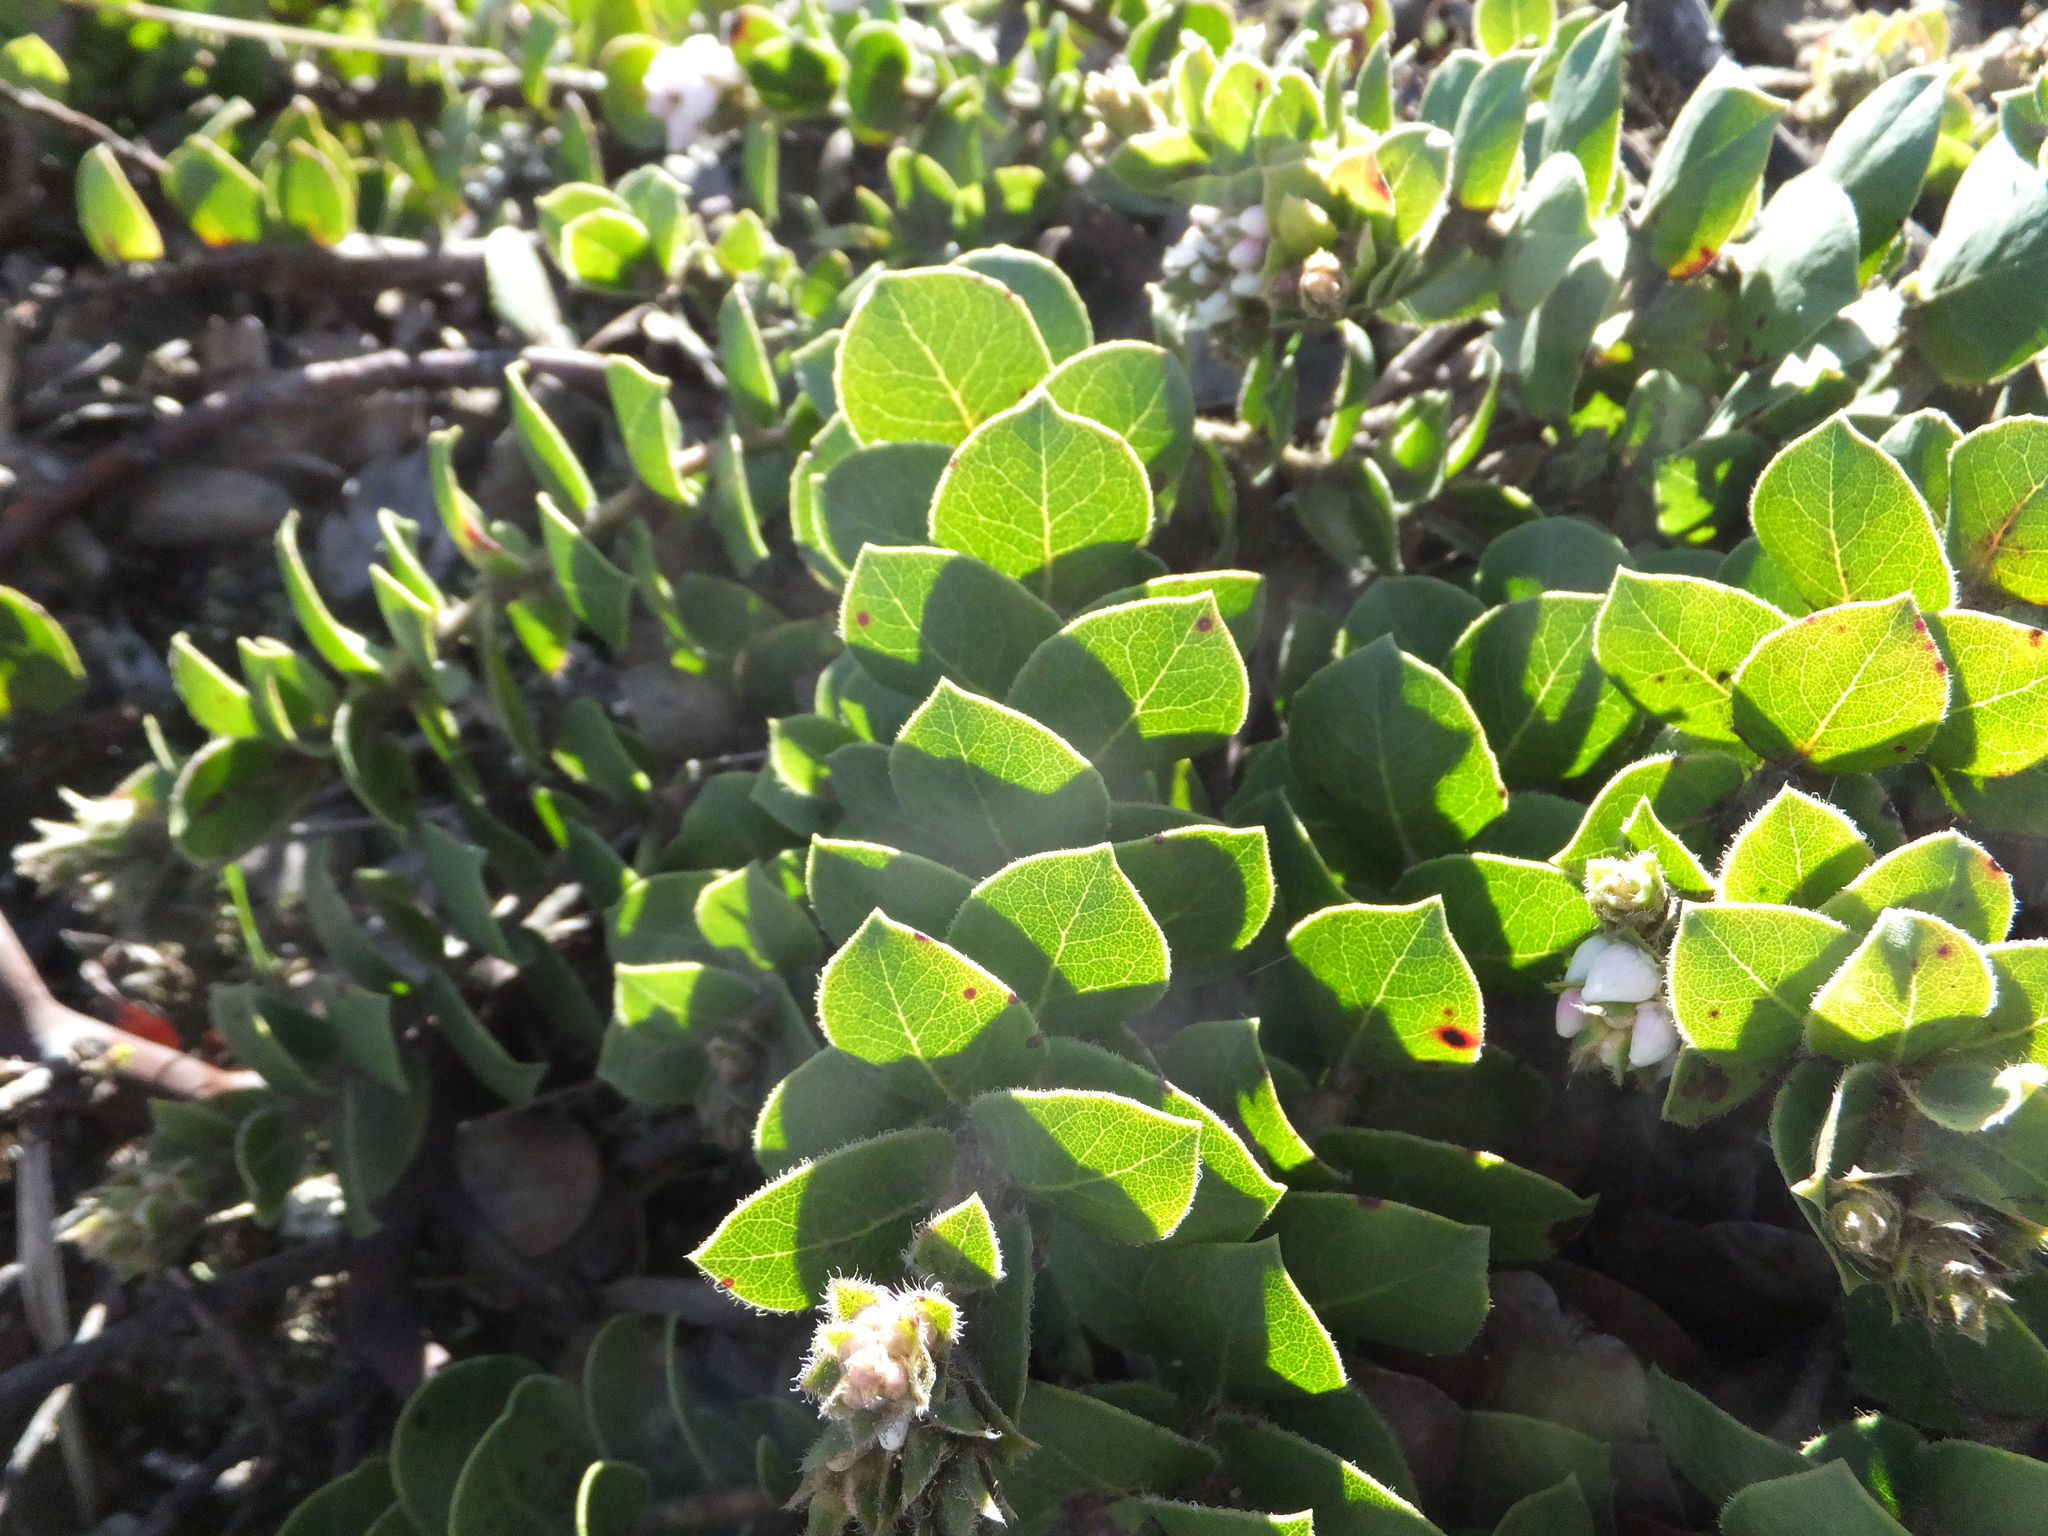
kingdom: Plantae
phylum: Tracheophyta
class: Magnoliopsida
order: Ericales
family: Ericaceae
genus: Arctostaphylos
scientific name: Arctostaphylos imbricata
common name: San bruno mountain manzanita
